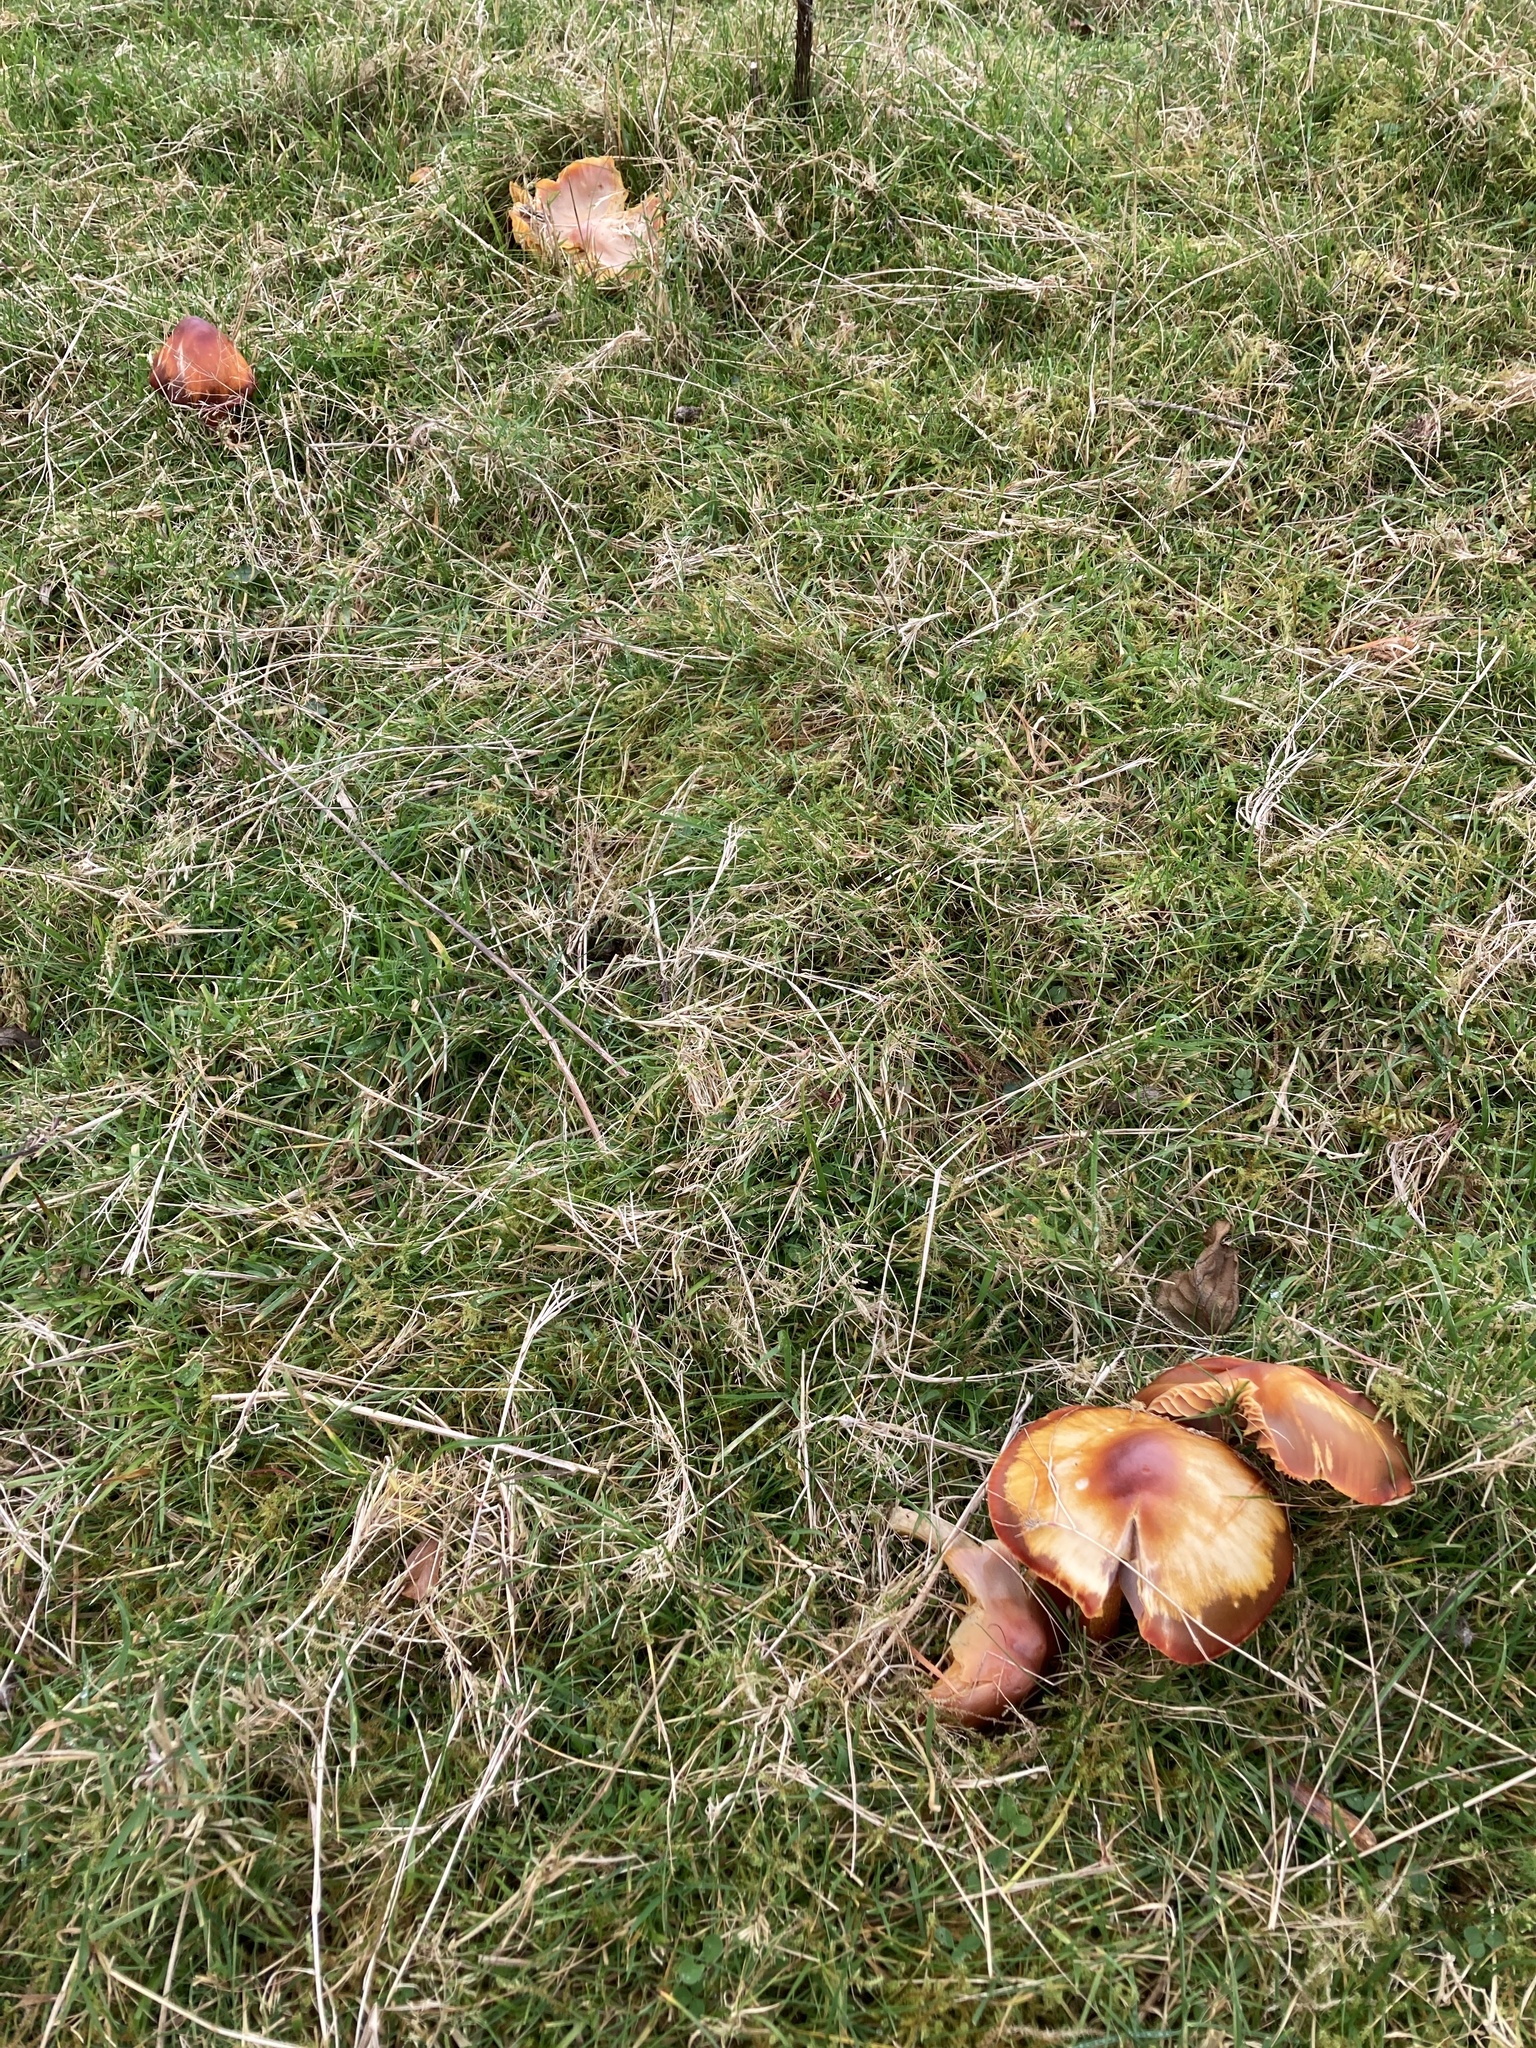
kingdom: Fungi
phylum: Basidiomycota
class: Agaricomycetes
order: Agaricales
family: Hygrophoraceae
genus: Hygrocybe
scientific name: Hygrocybe punicea
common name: Crimson waxcap
